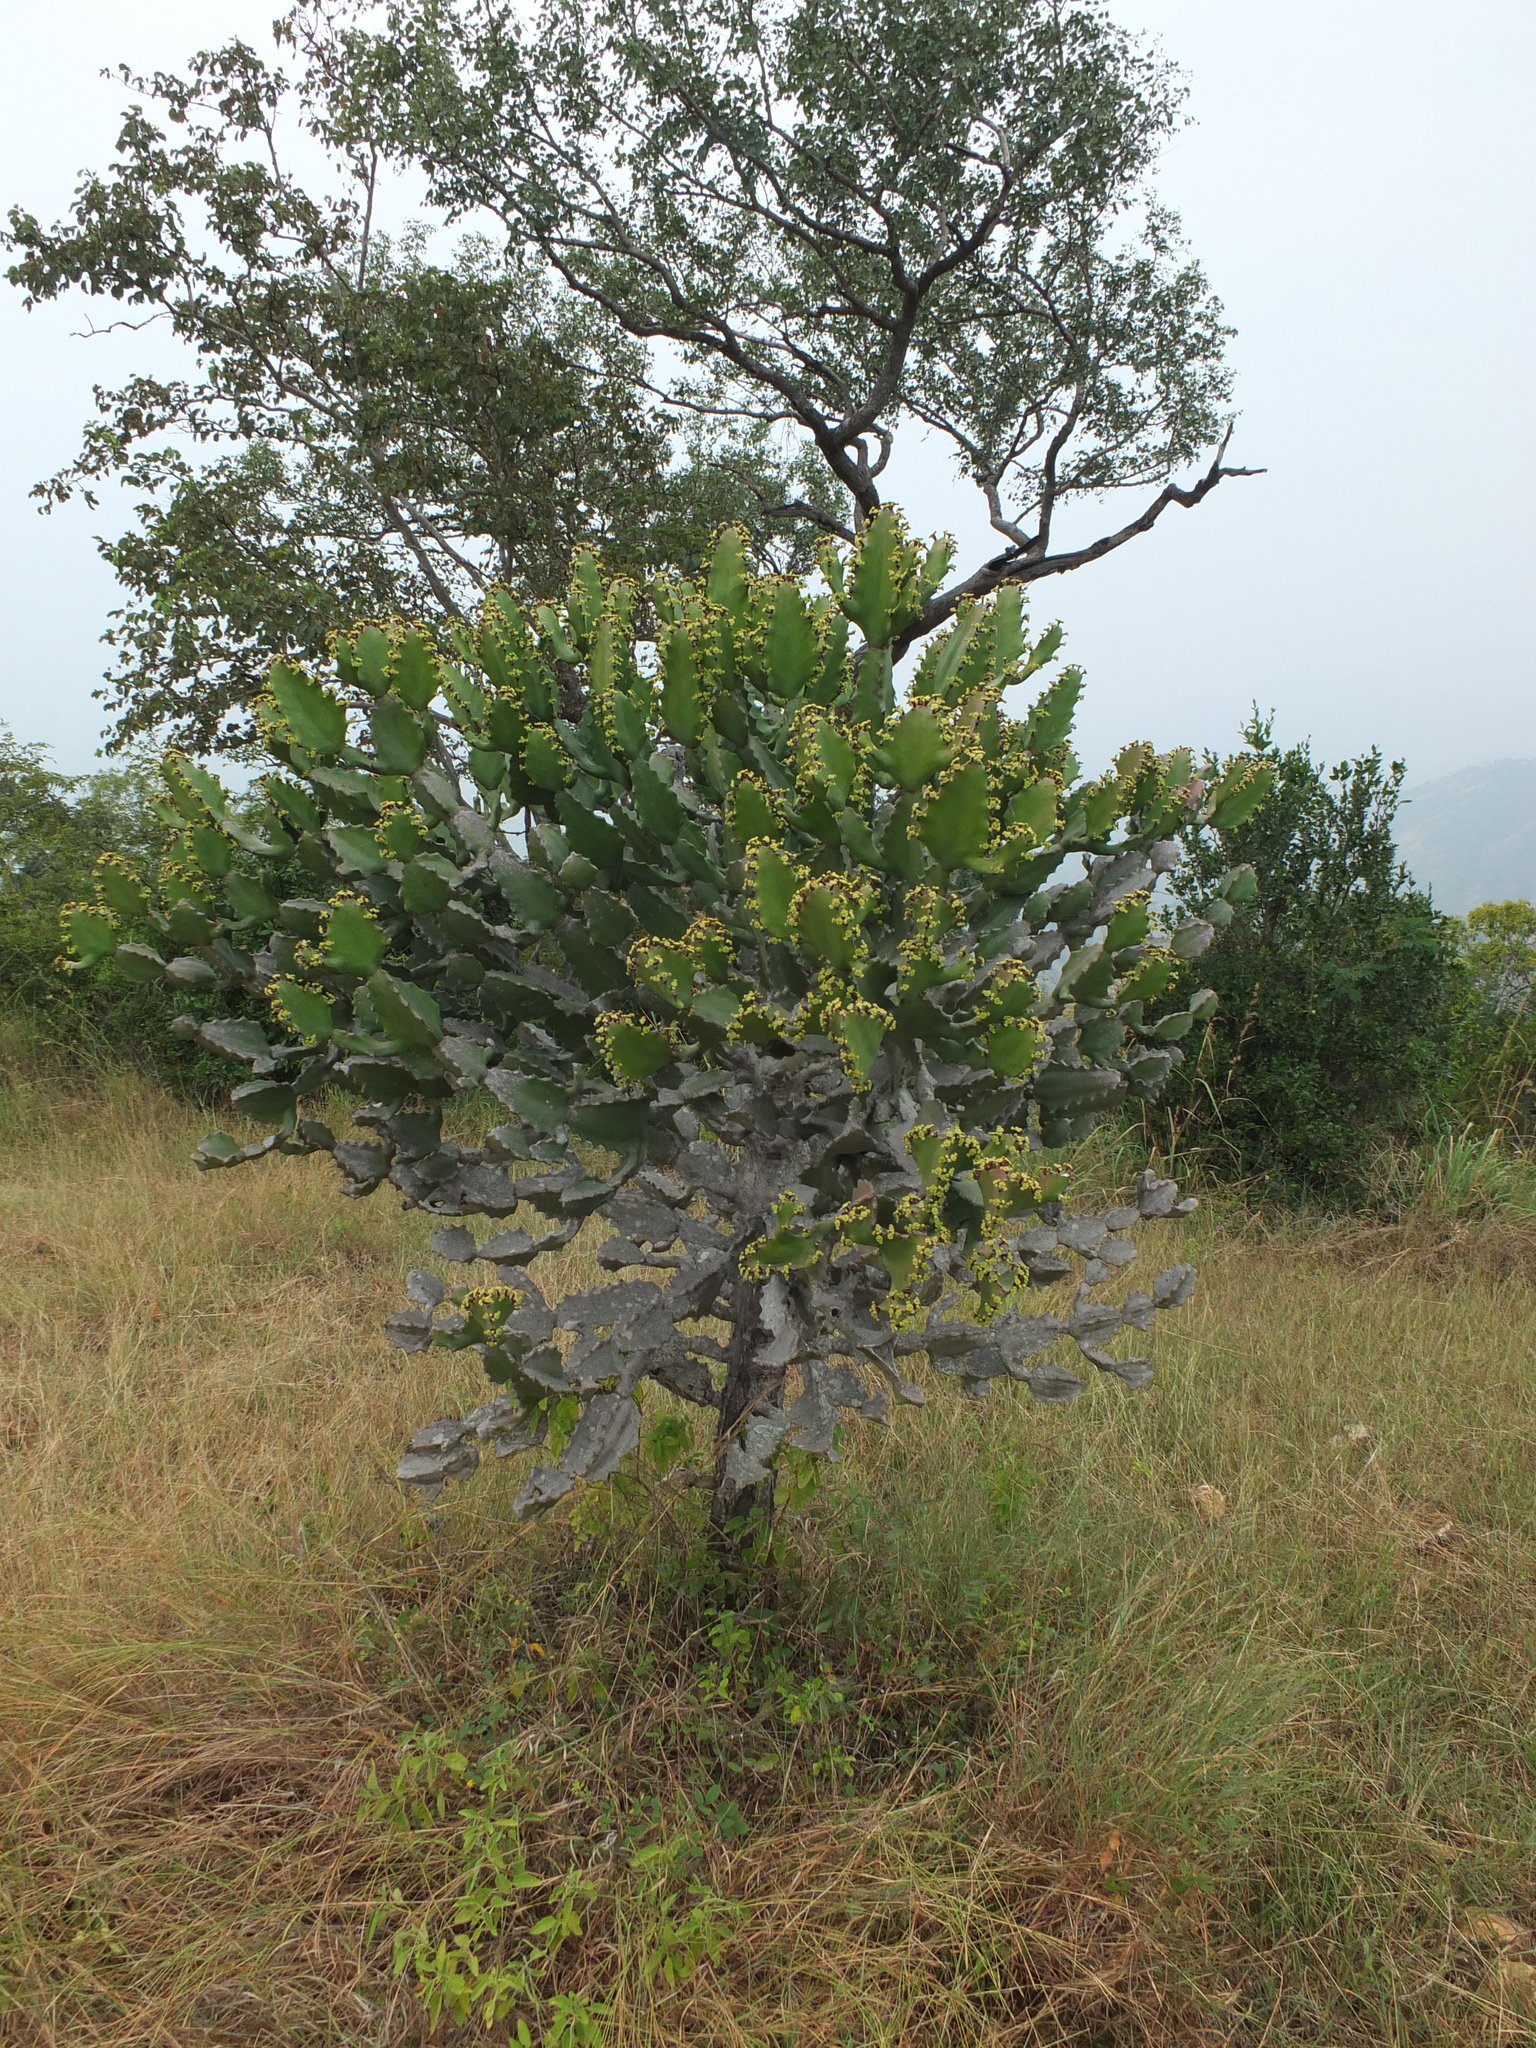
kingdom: Plantae
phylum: Tracheophyta
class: Magnoliopsida
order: Malpighiales
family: Euphorbiaceae
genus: Euphorbia
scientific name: Euphorbia antiquorum
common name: Malayan spurge tree
